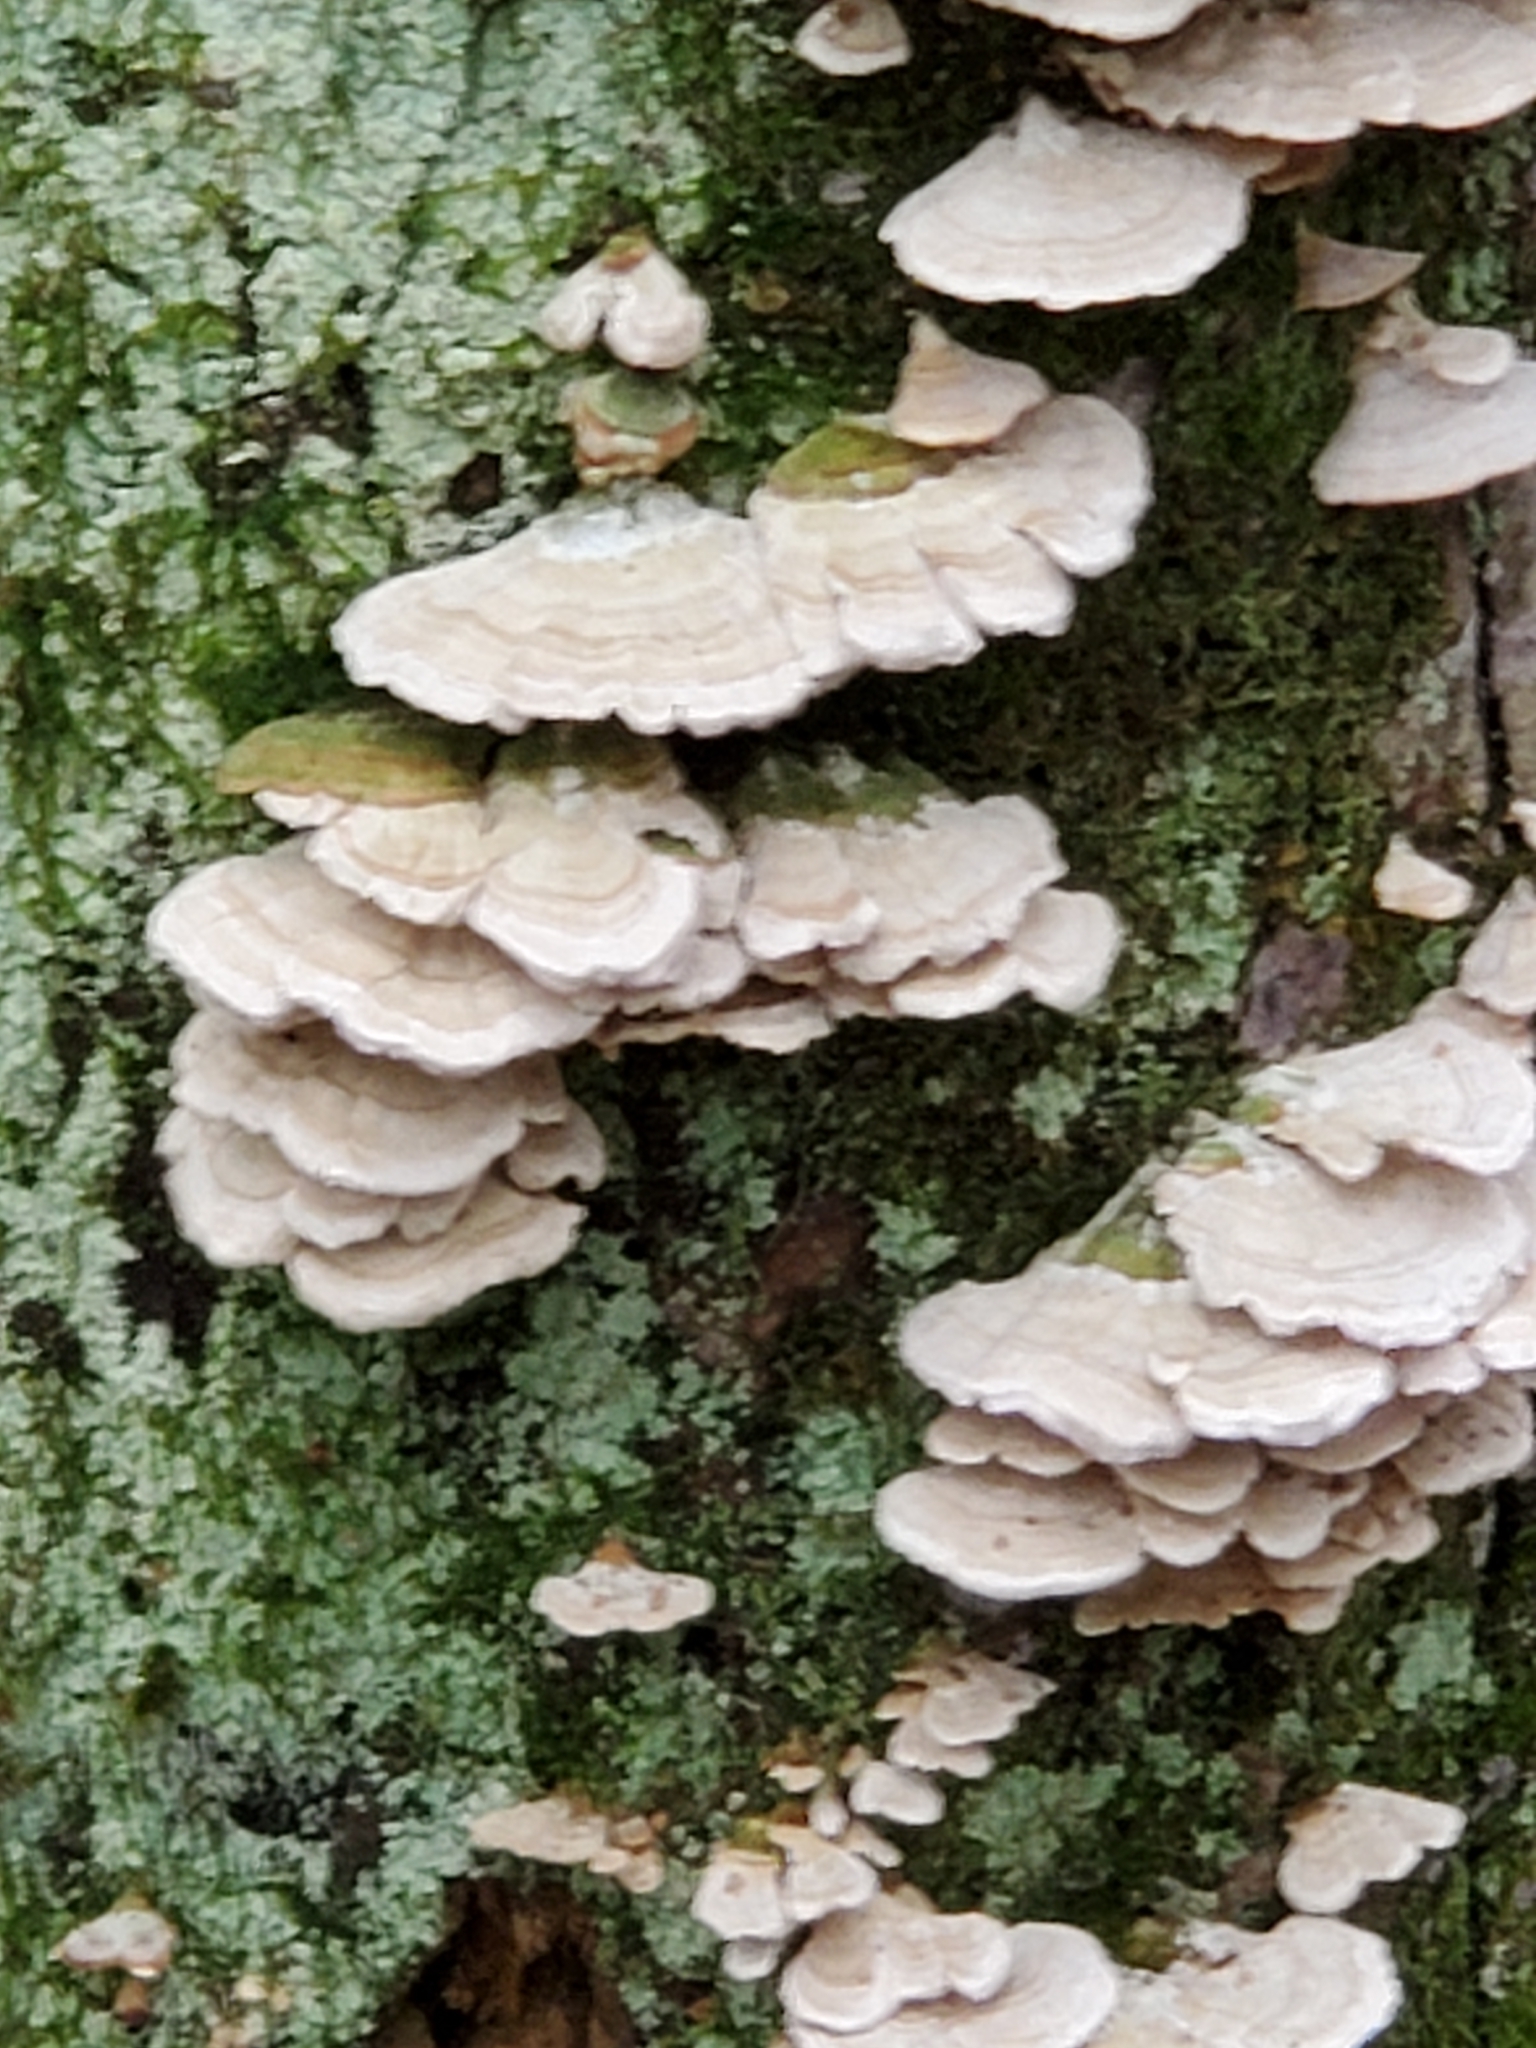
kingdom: Fungi
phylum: Basidiomycota
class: Agaricomycetes
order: Hymenochaetales
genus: Trichaptum
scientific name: Trichaptum abietinum
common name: Purplepore bracket
